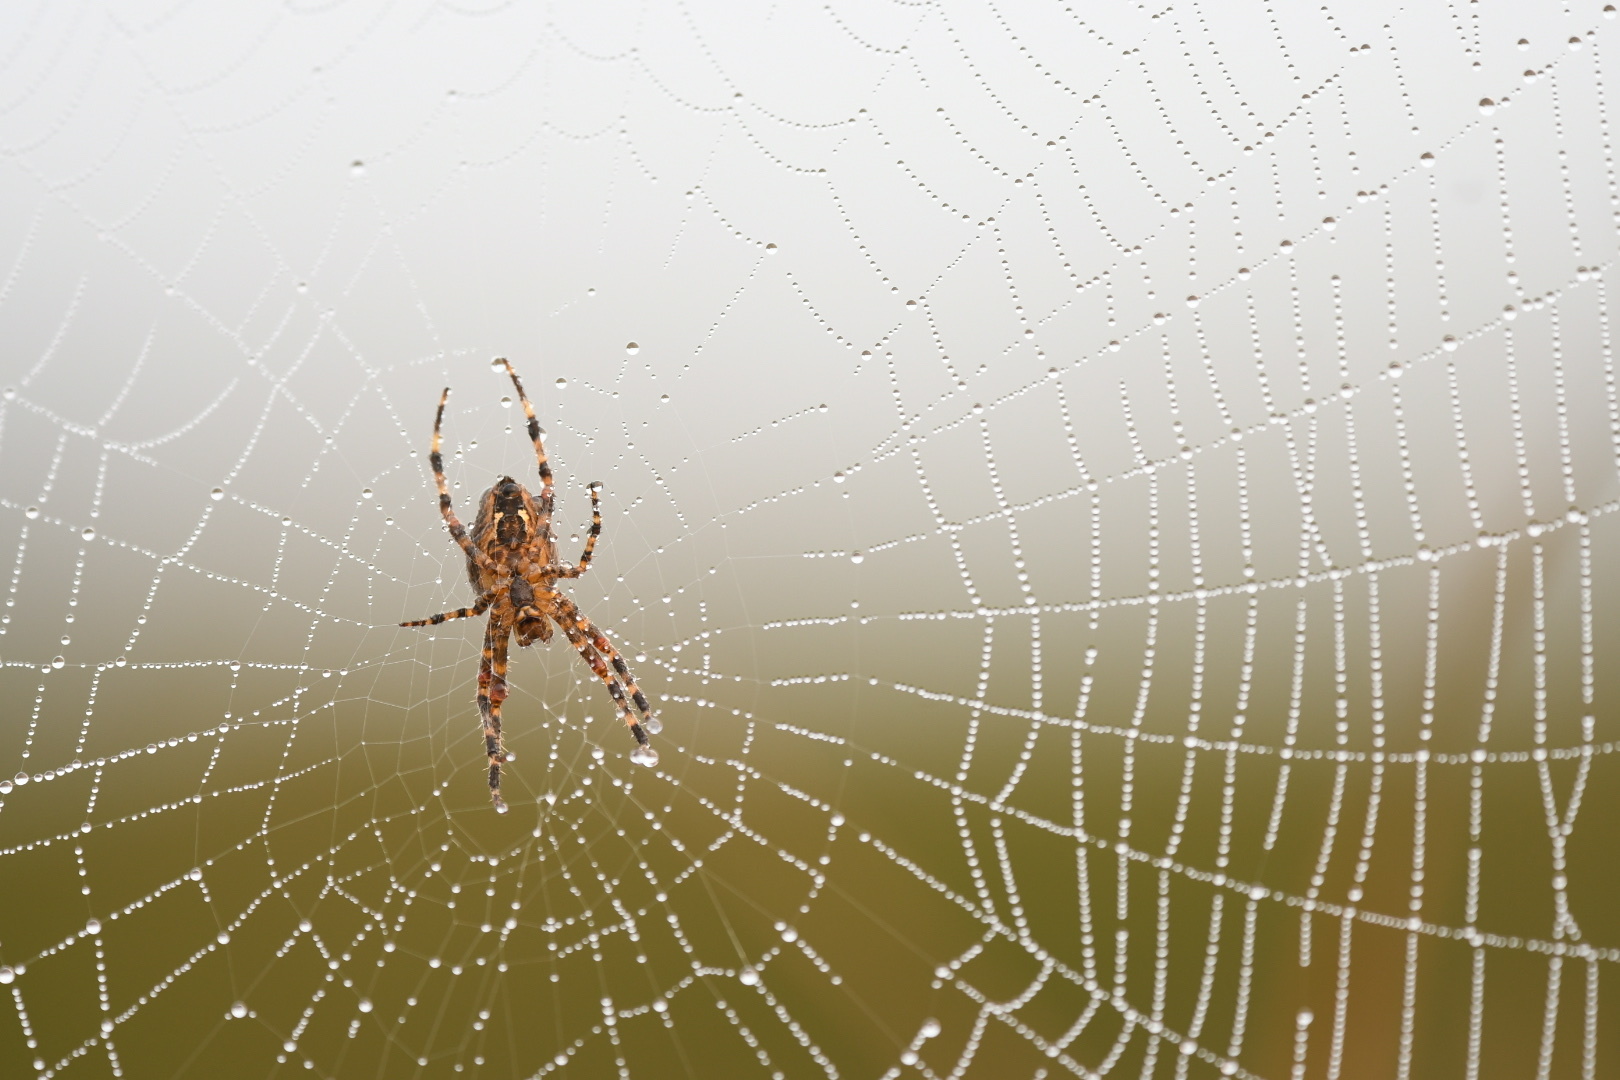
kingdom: Animalia
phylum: Arthropoda
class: Arachnida
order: Araneae
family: Araneidae
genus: Araneus
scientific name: Araneus diadematus
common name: Cross orbweaver
